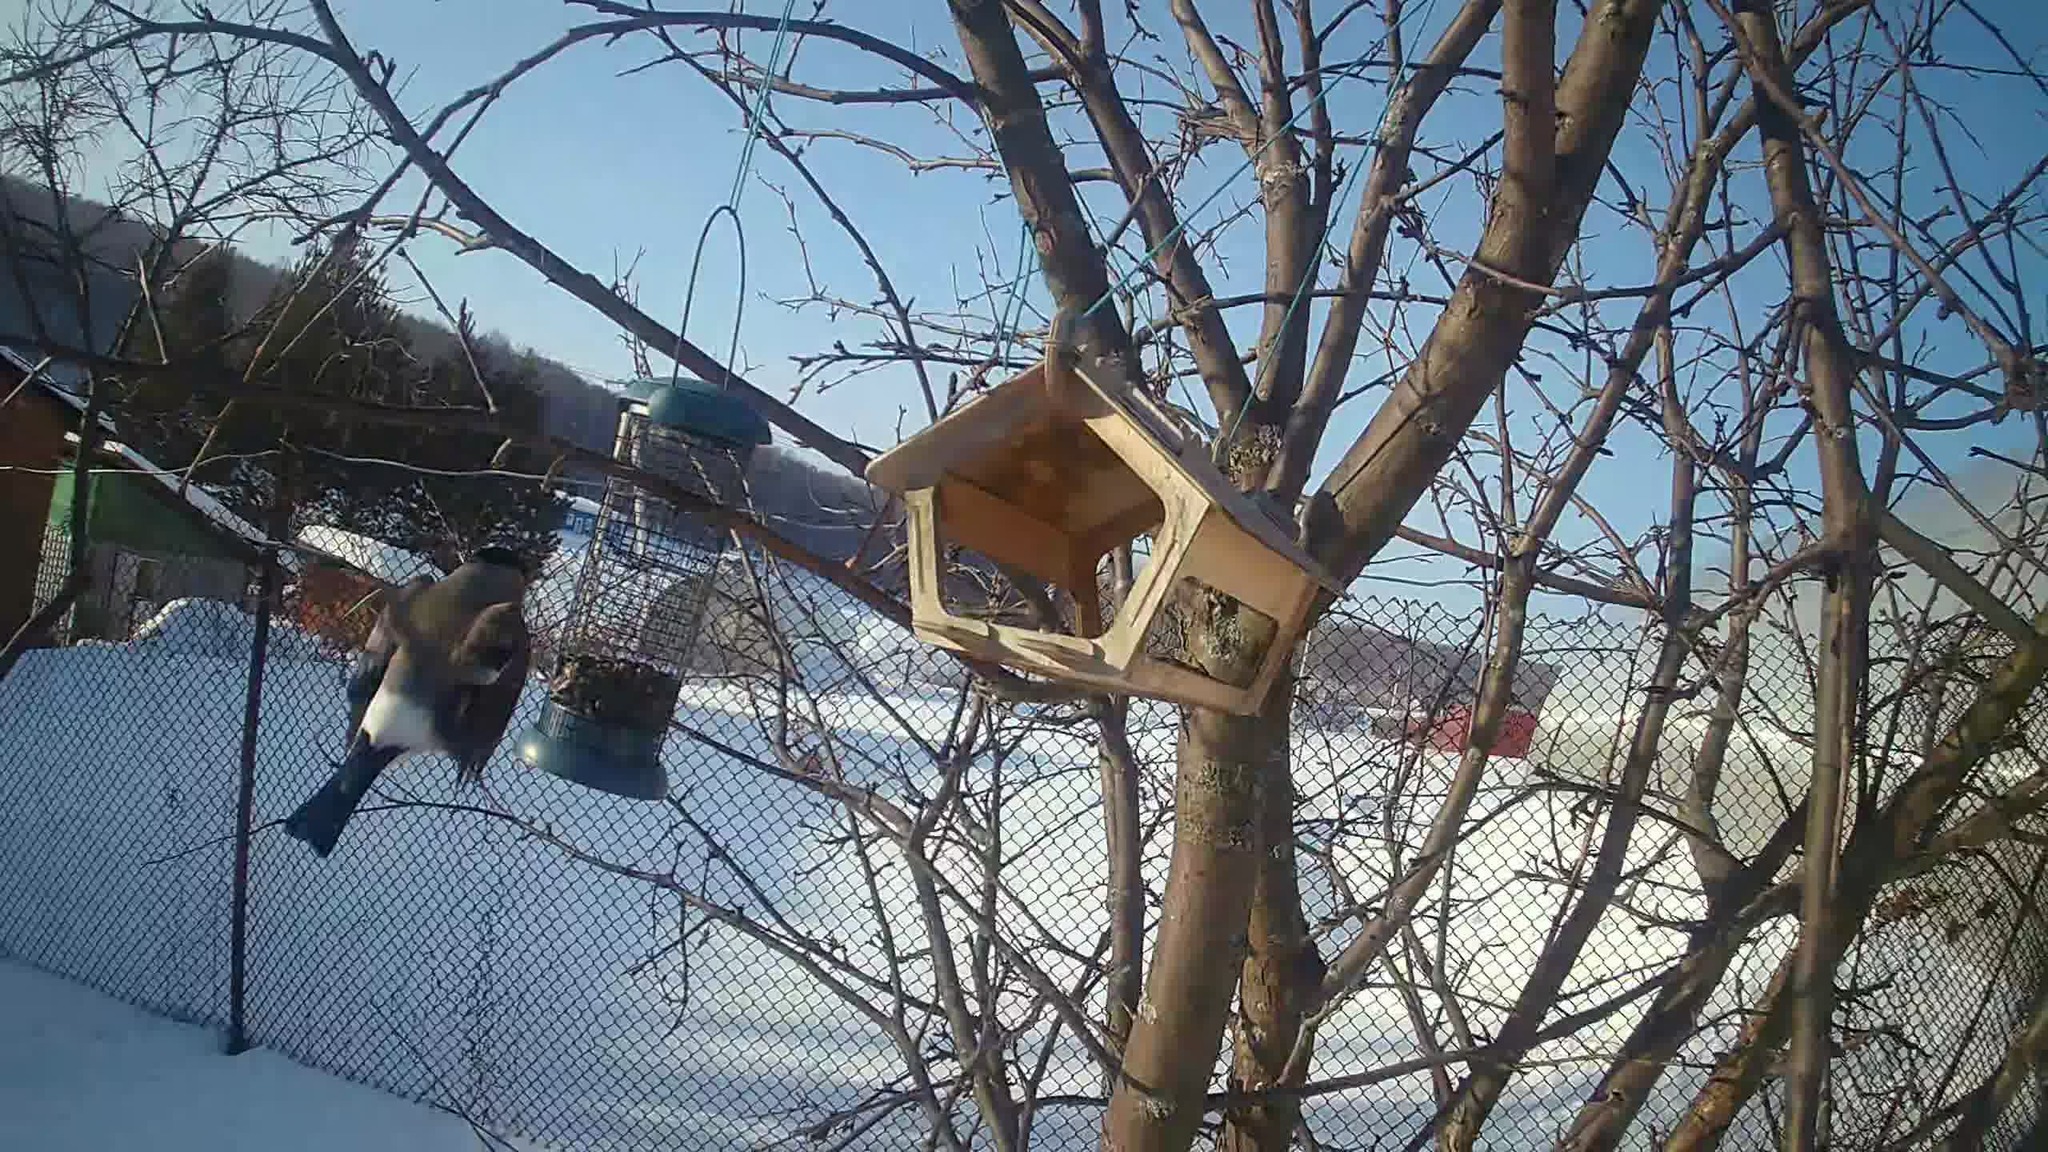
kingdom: Animalia
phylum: Chordata
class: Aves
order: Passeriformes
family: Fringillidae
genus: Pyrrhula
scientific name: Pyrrhula pyrrhula
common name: Eurasian bullfinch
